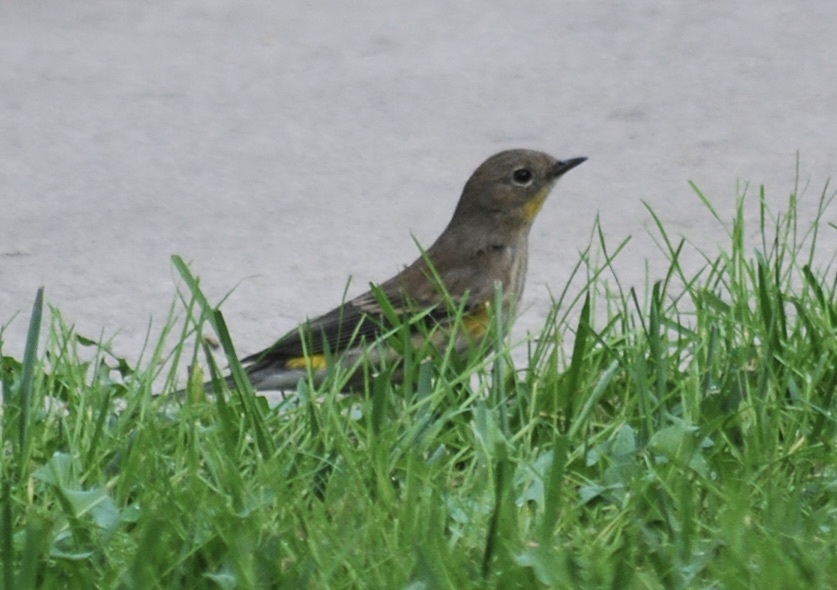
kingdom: Animalia
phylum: Chordata
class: Aves
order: Passeriformes
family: Parulidae
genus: Setophaga
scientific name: Setophaga coronata
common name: Myrtle warbler
